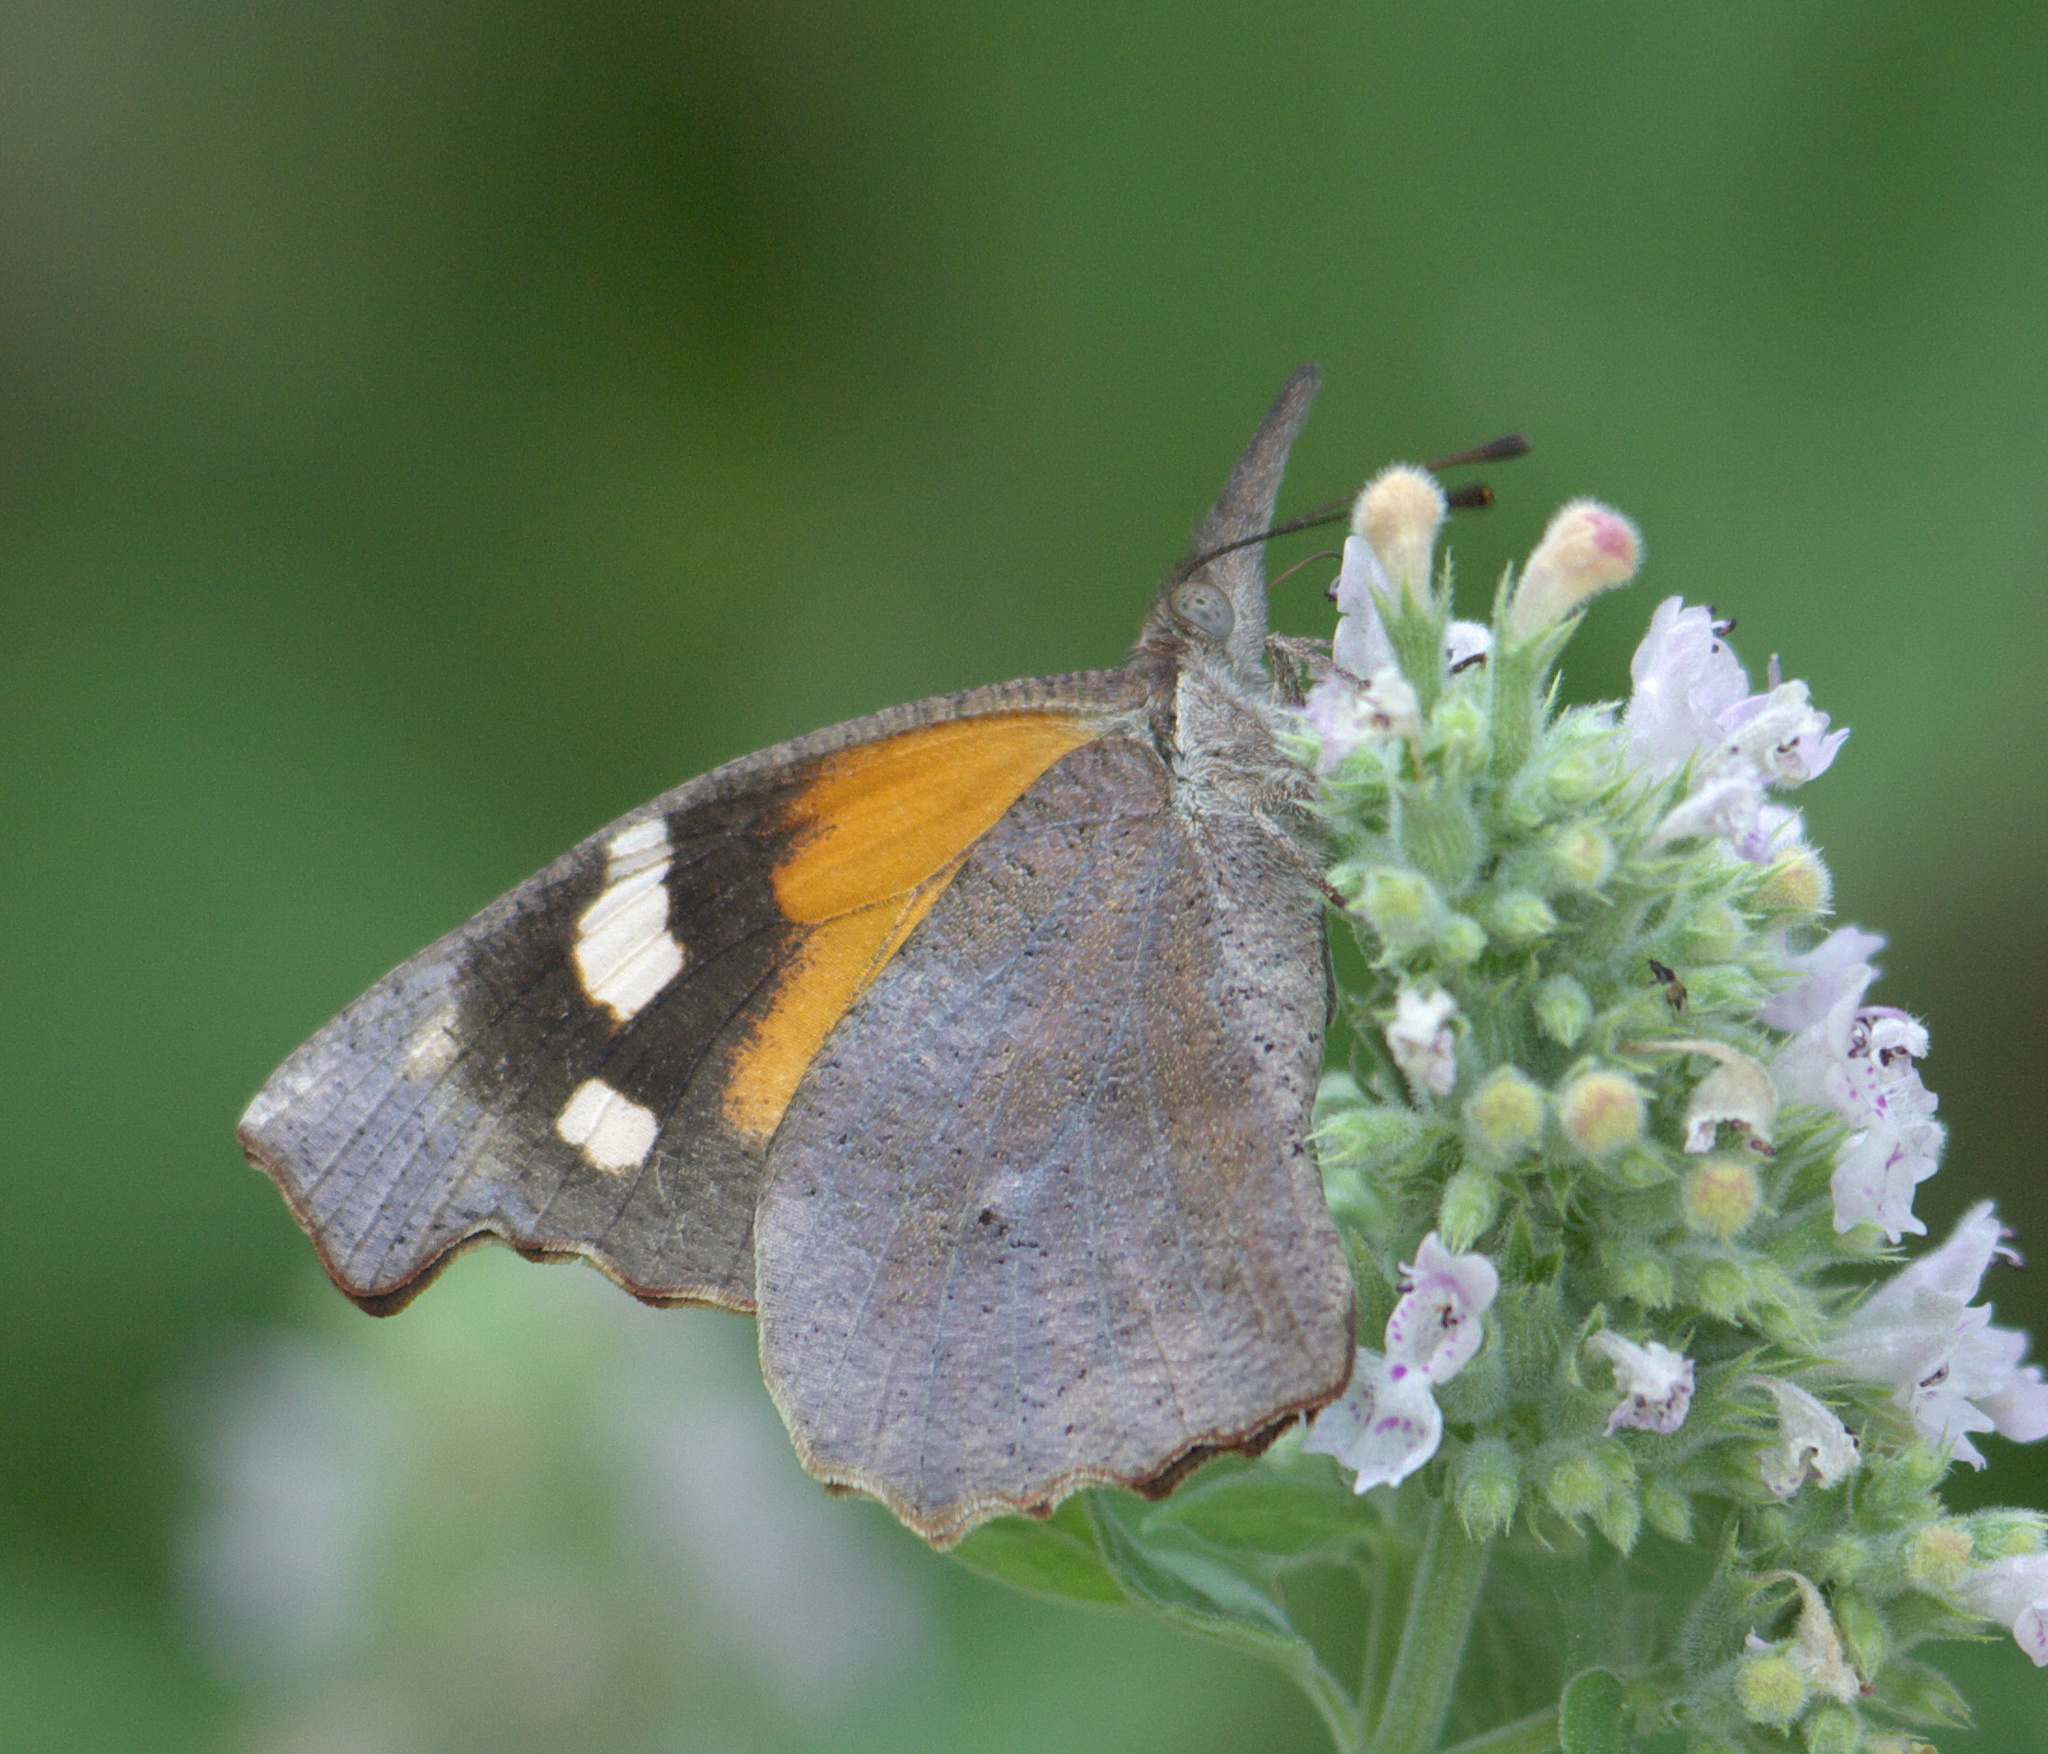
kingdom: Animalia
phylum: Arthropoda
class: Insecta
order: Lepidoptera
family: Nymphalidae
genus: Libytheana
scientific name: Libytheana carinenta
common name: American snout
